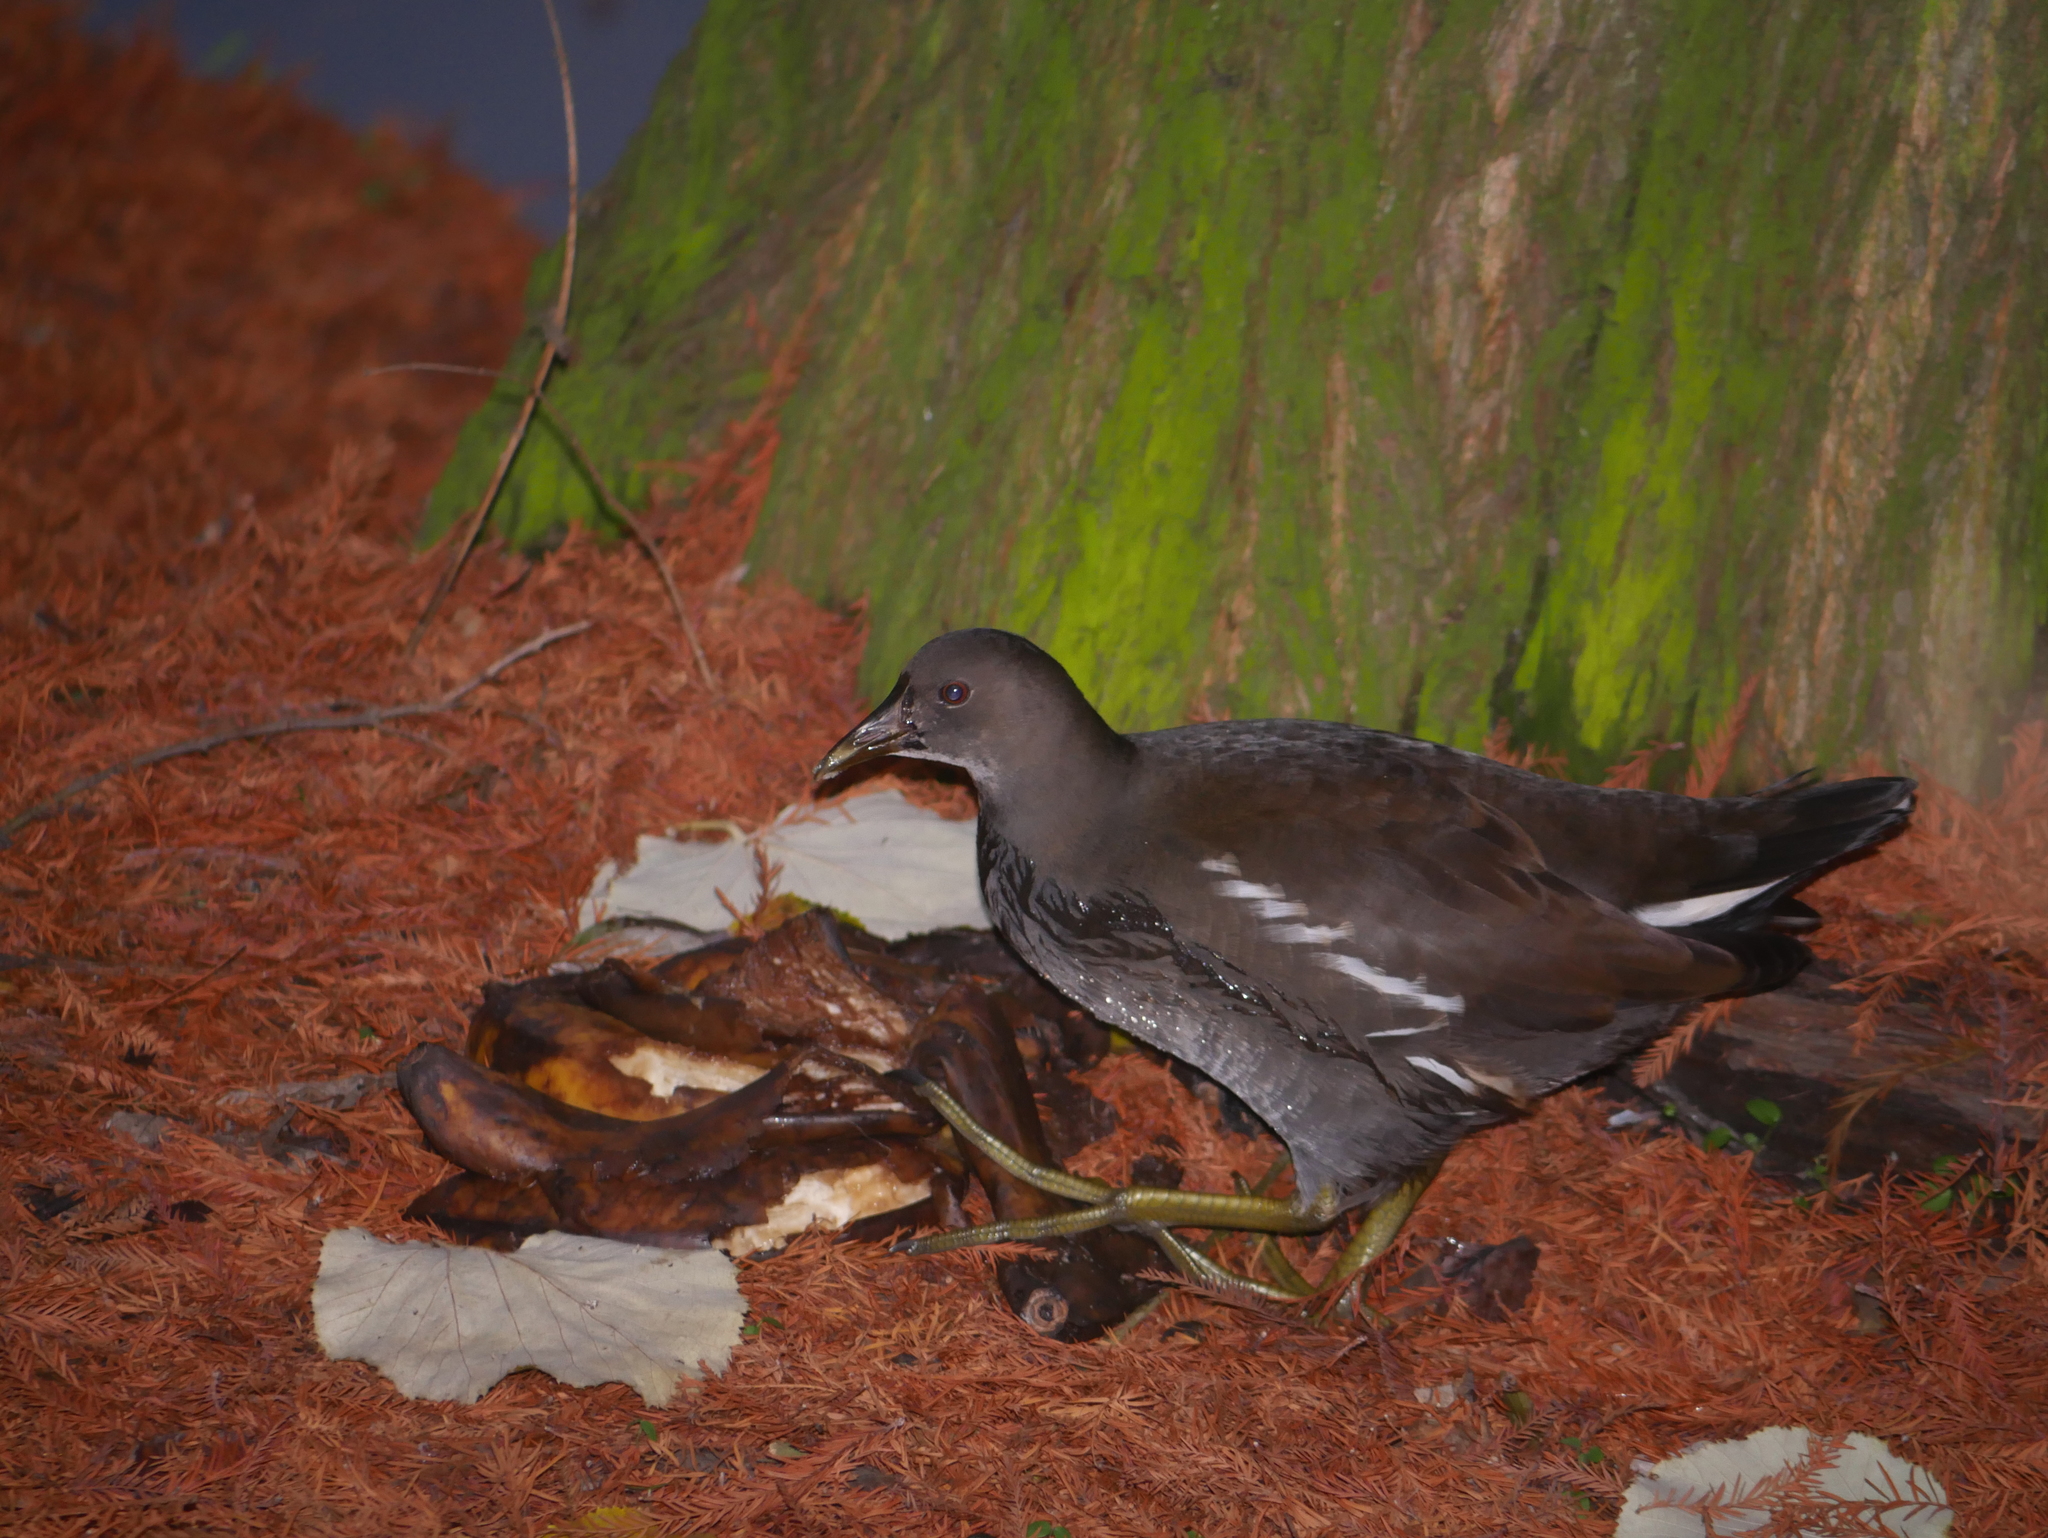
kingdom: Animalia
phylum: Chordata
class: Aves
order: Gruiformes
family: Rallidae
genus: Gallinula
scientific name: Gallinula chloropus
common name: Common moorhen
